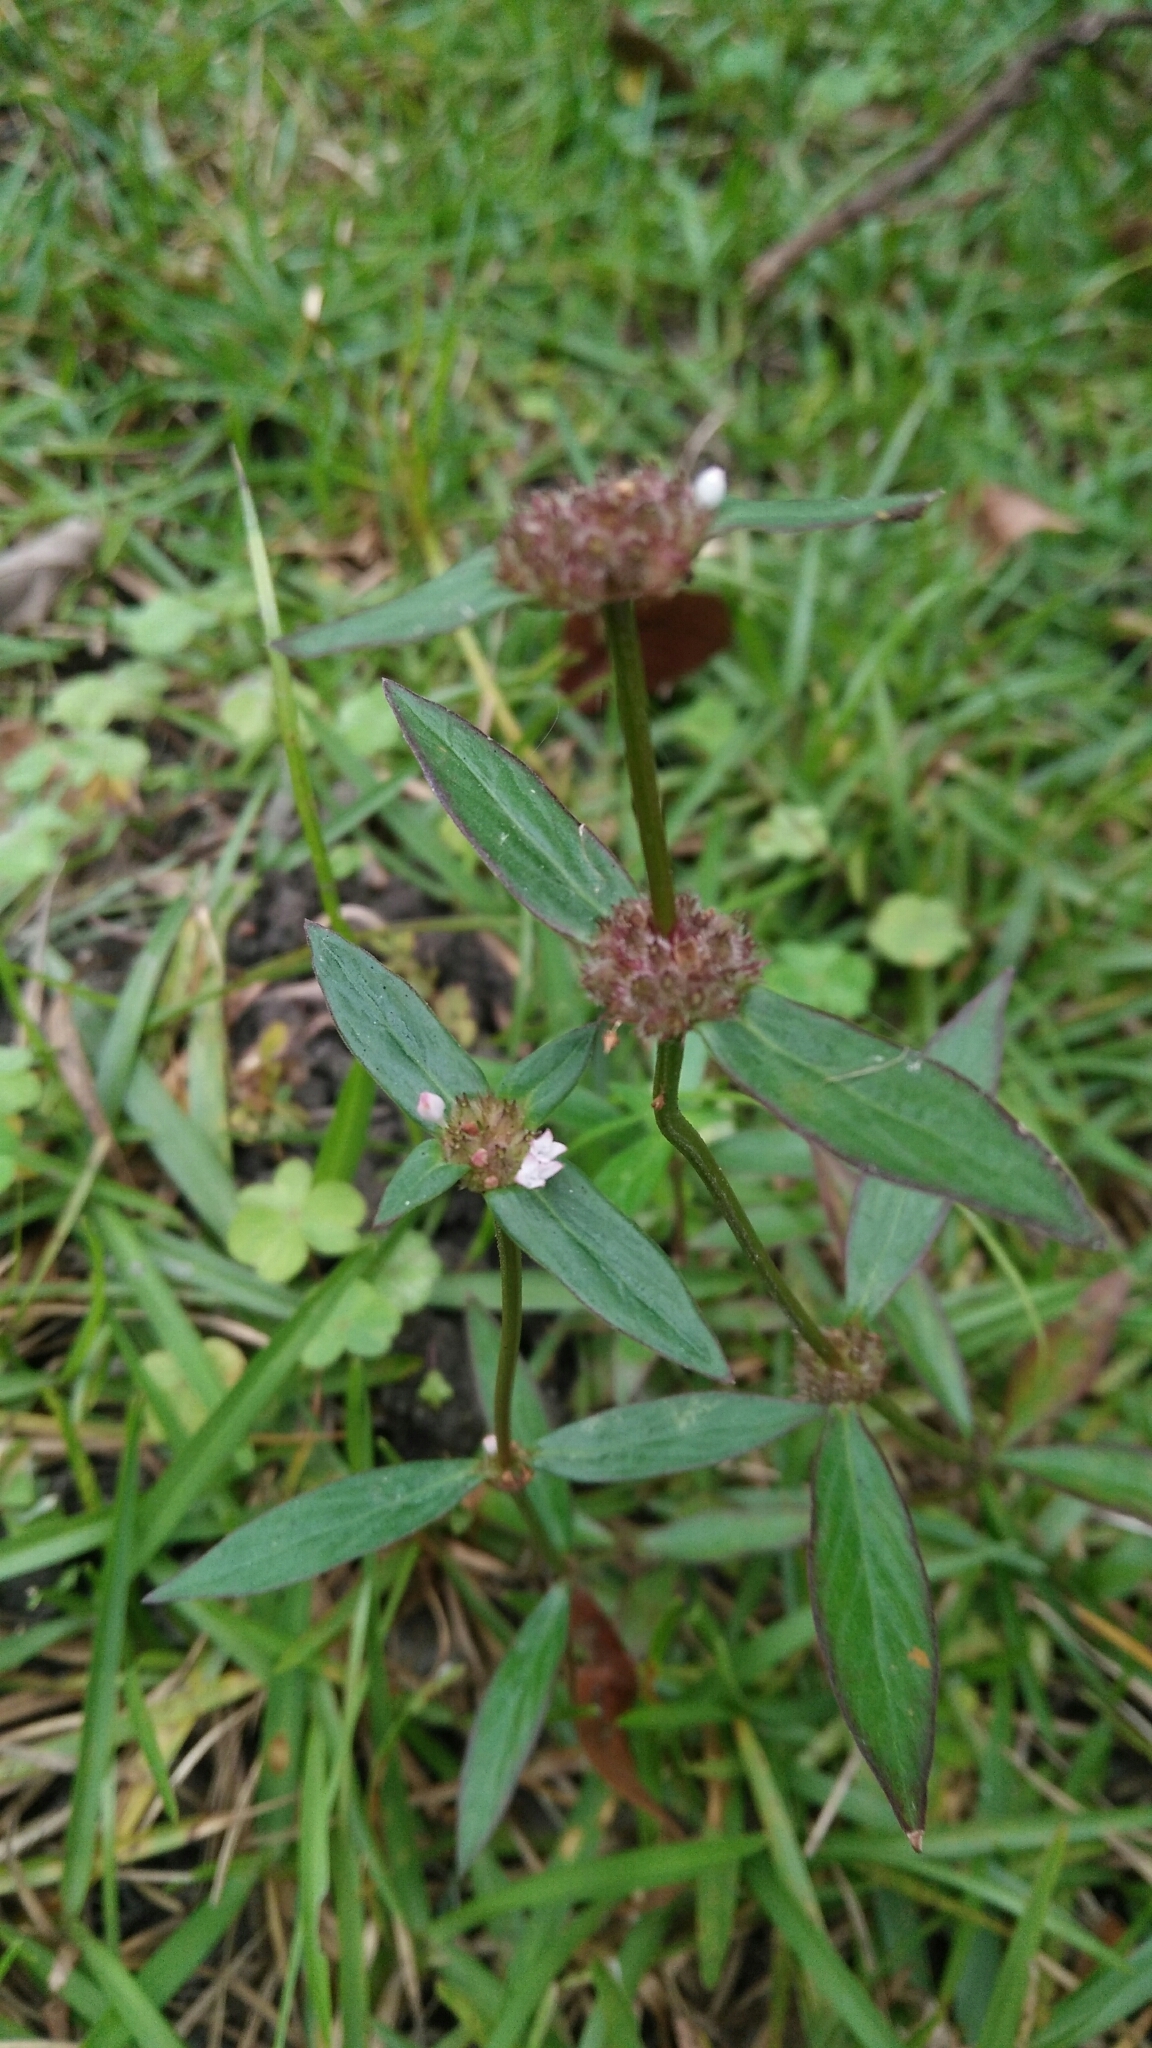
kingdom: Plantae
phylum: Tracheophyta
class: Magnoliopsida
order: Gentianales
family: Rubiaceae
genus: Spermacoce
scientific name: Spermacoce remota
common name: Woodland false buttonweed
